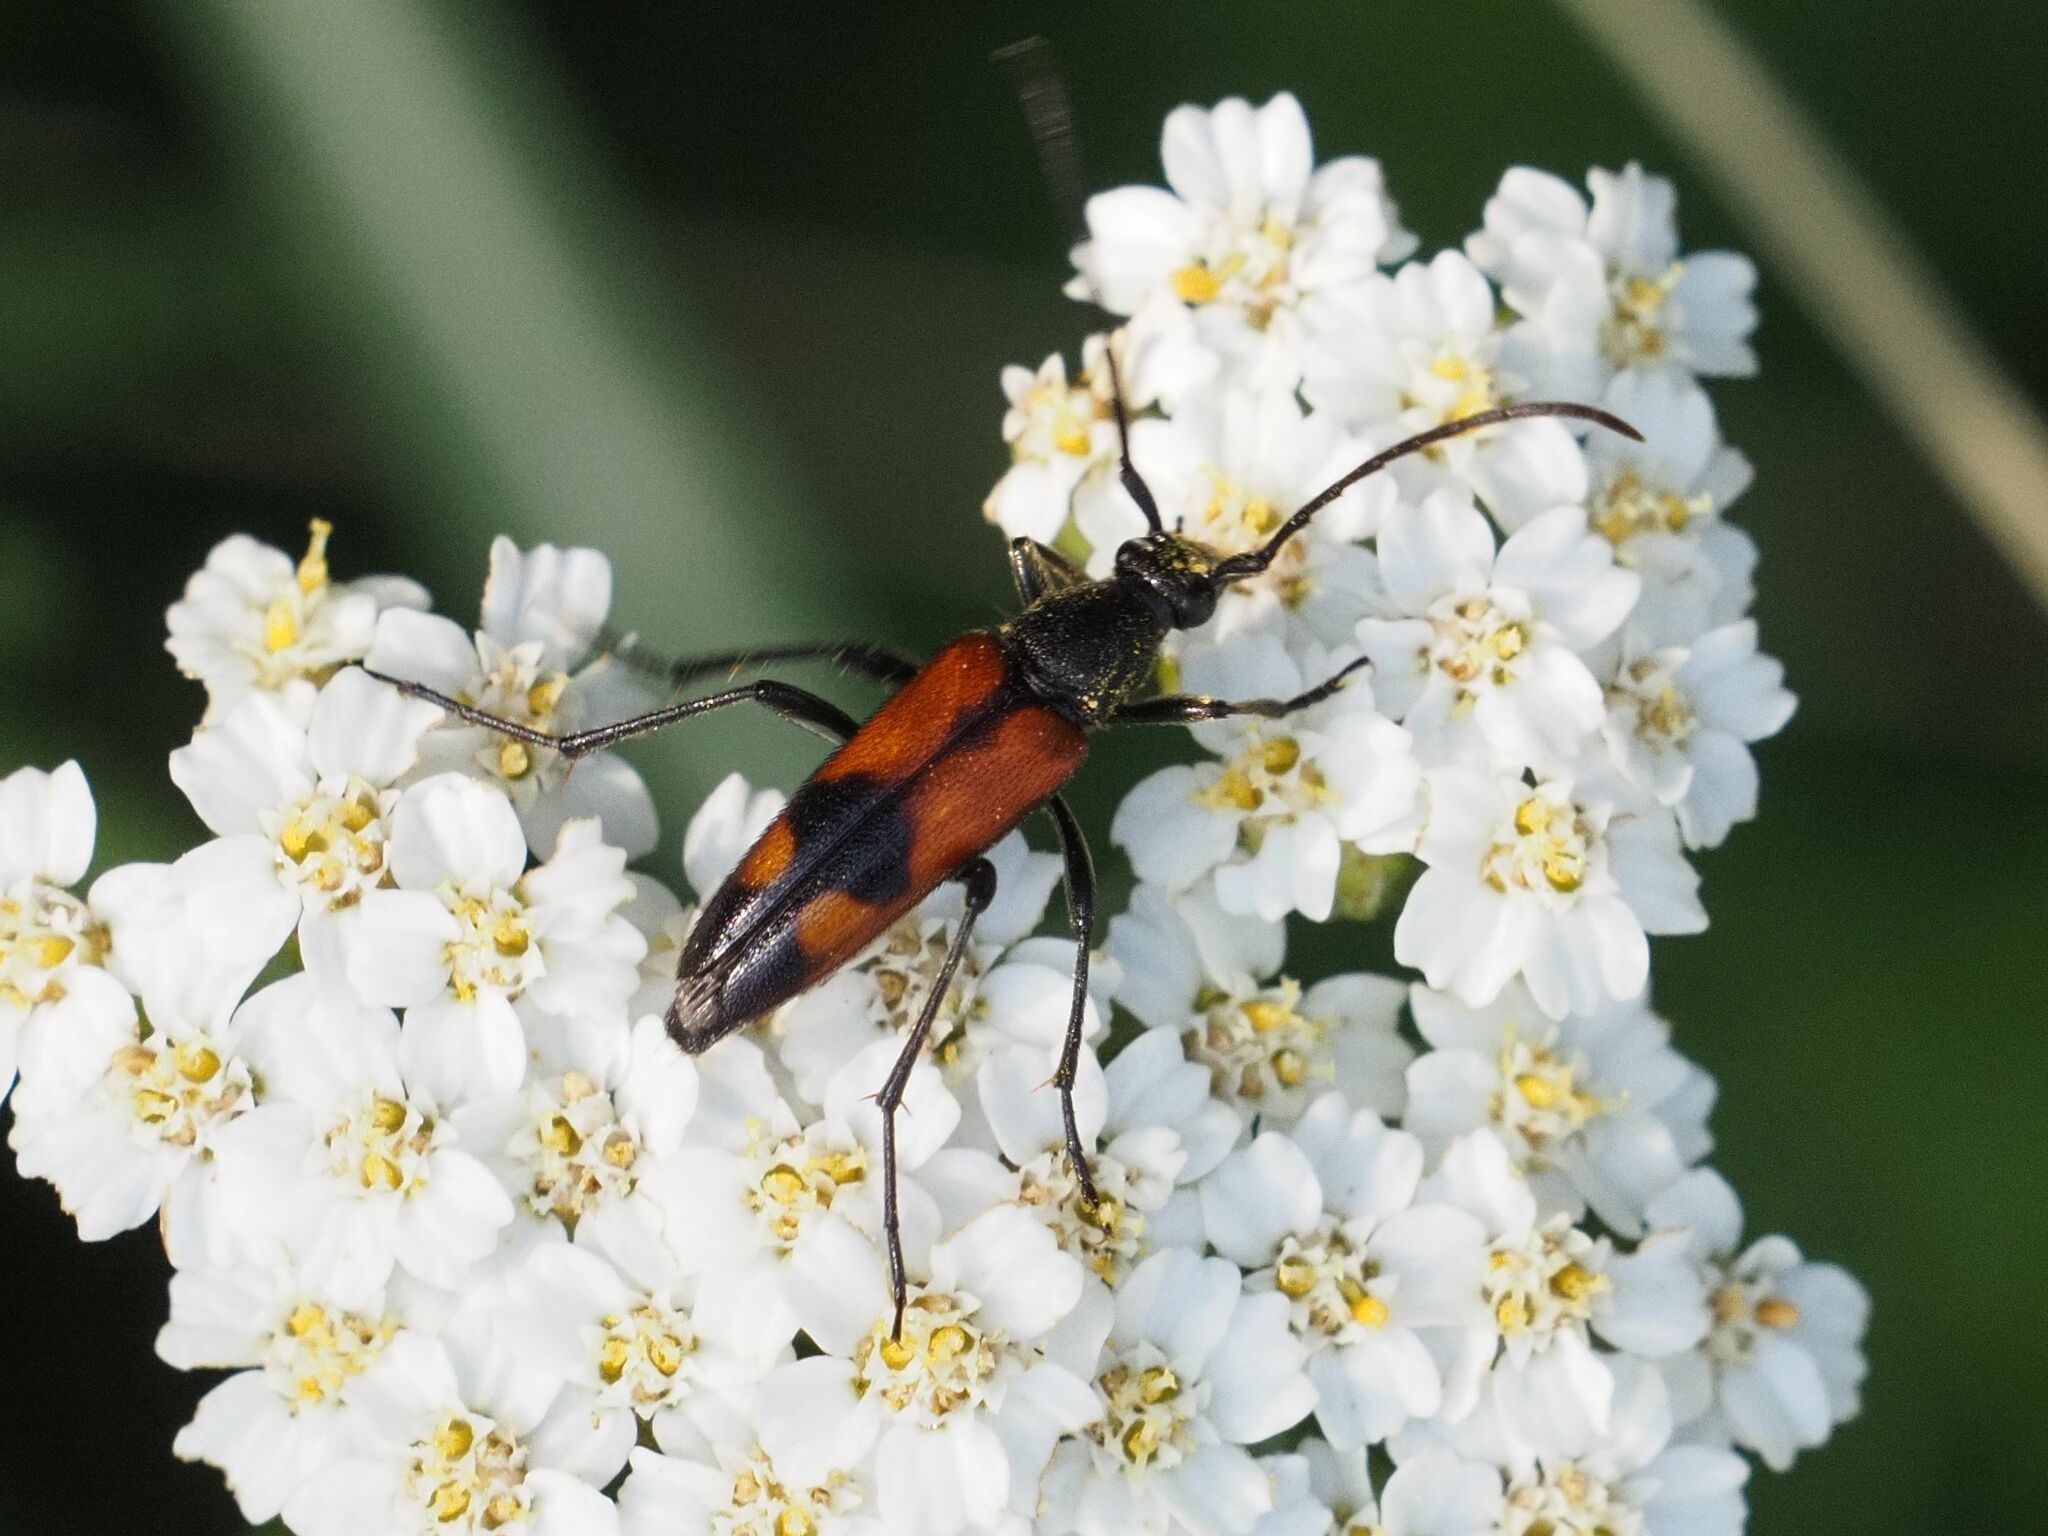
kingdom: Animalia
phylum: Arthropoda
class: Insecta
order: Coleoptera
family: Cerambycidae
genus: Stenurella
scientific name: Stenurella bifasciata
